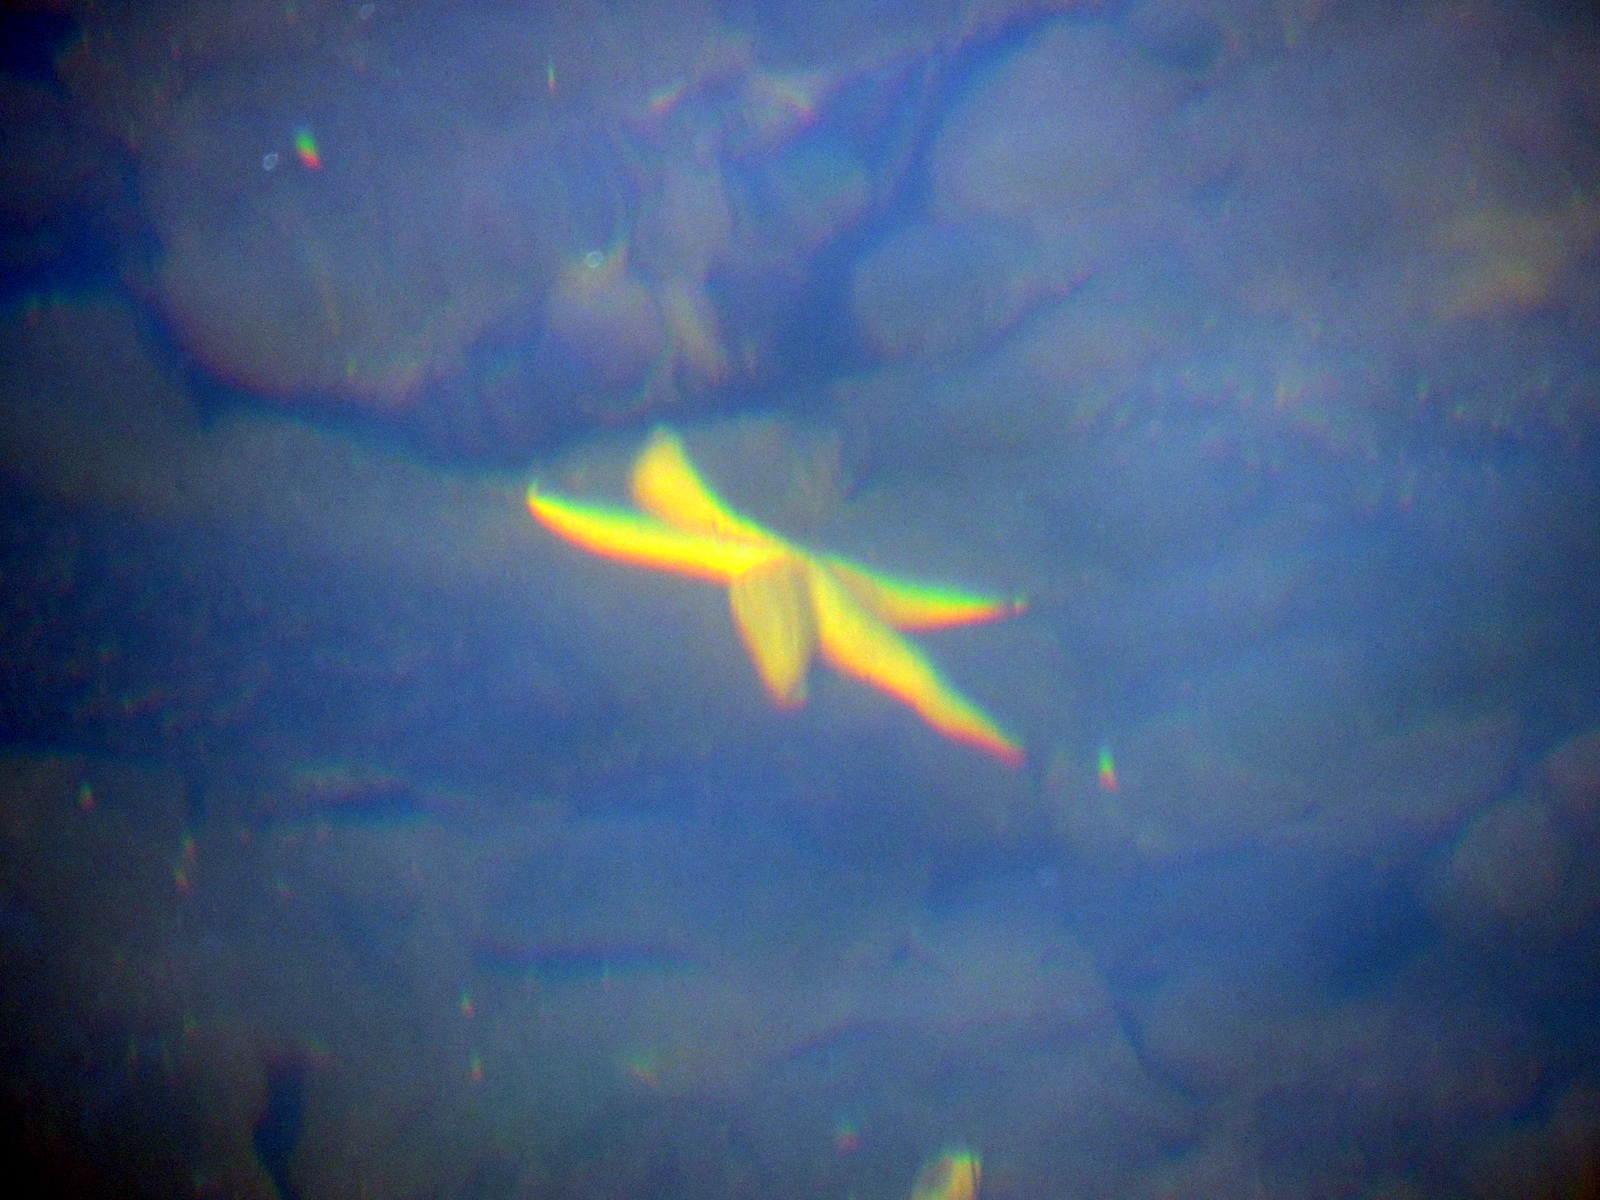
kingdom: Animalia
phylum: Echinodermata
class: Asteroidea
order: Forcipulatida
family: Asteriidae
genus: Asterias
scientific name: Asterias amurensis
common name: Flat-bottomed star
